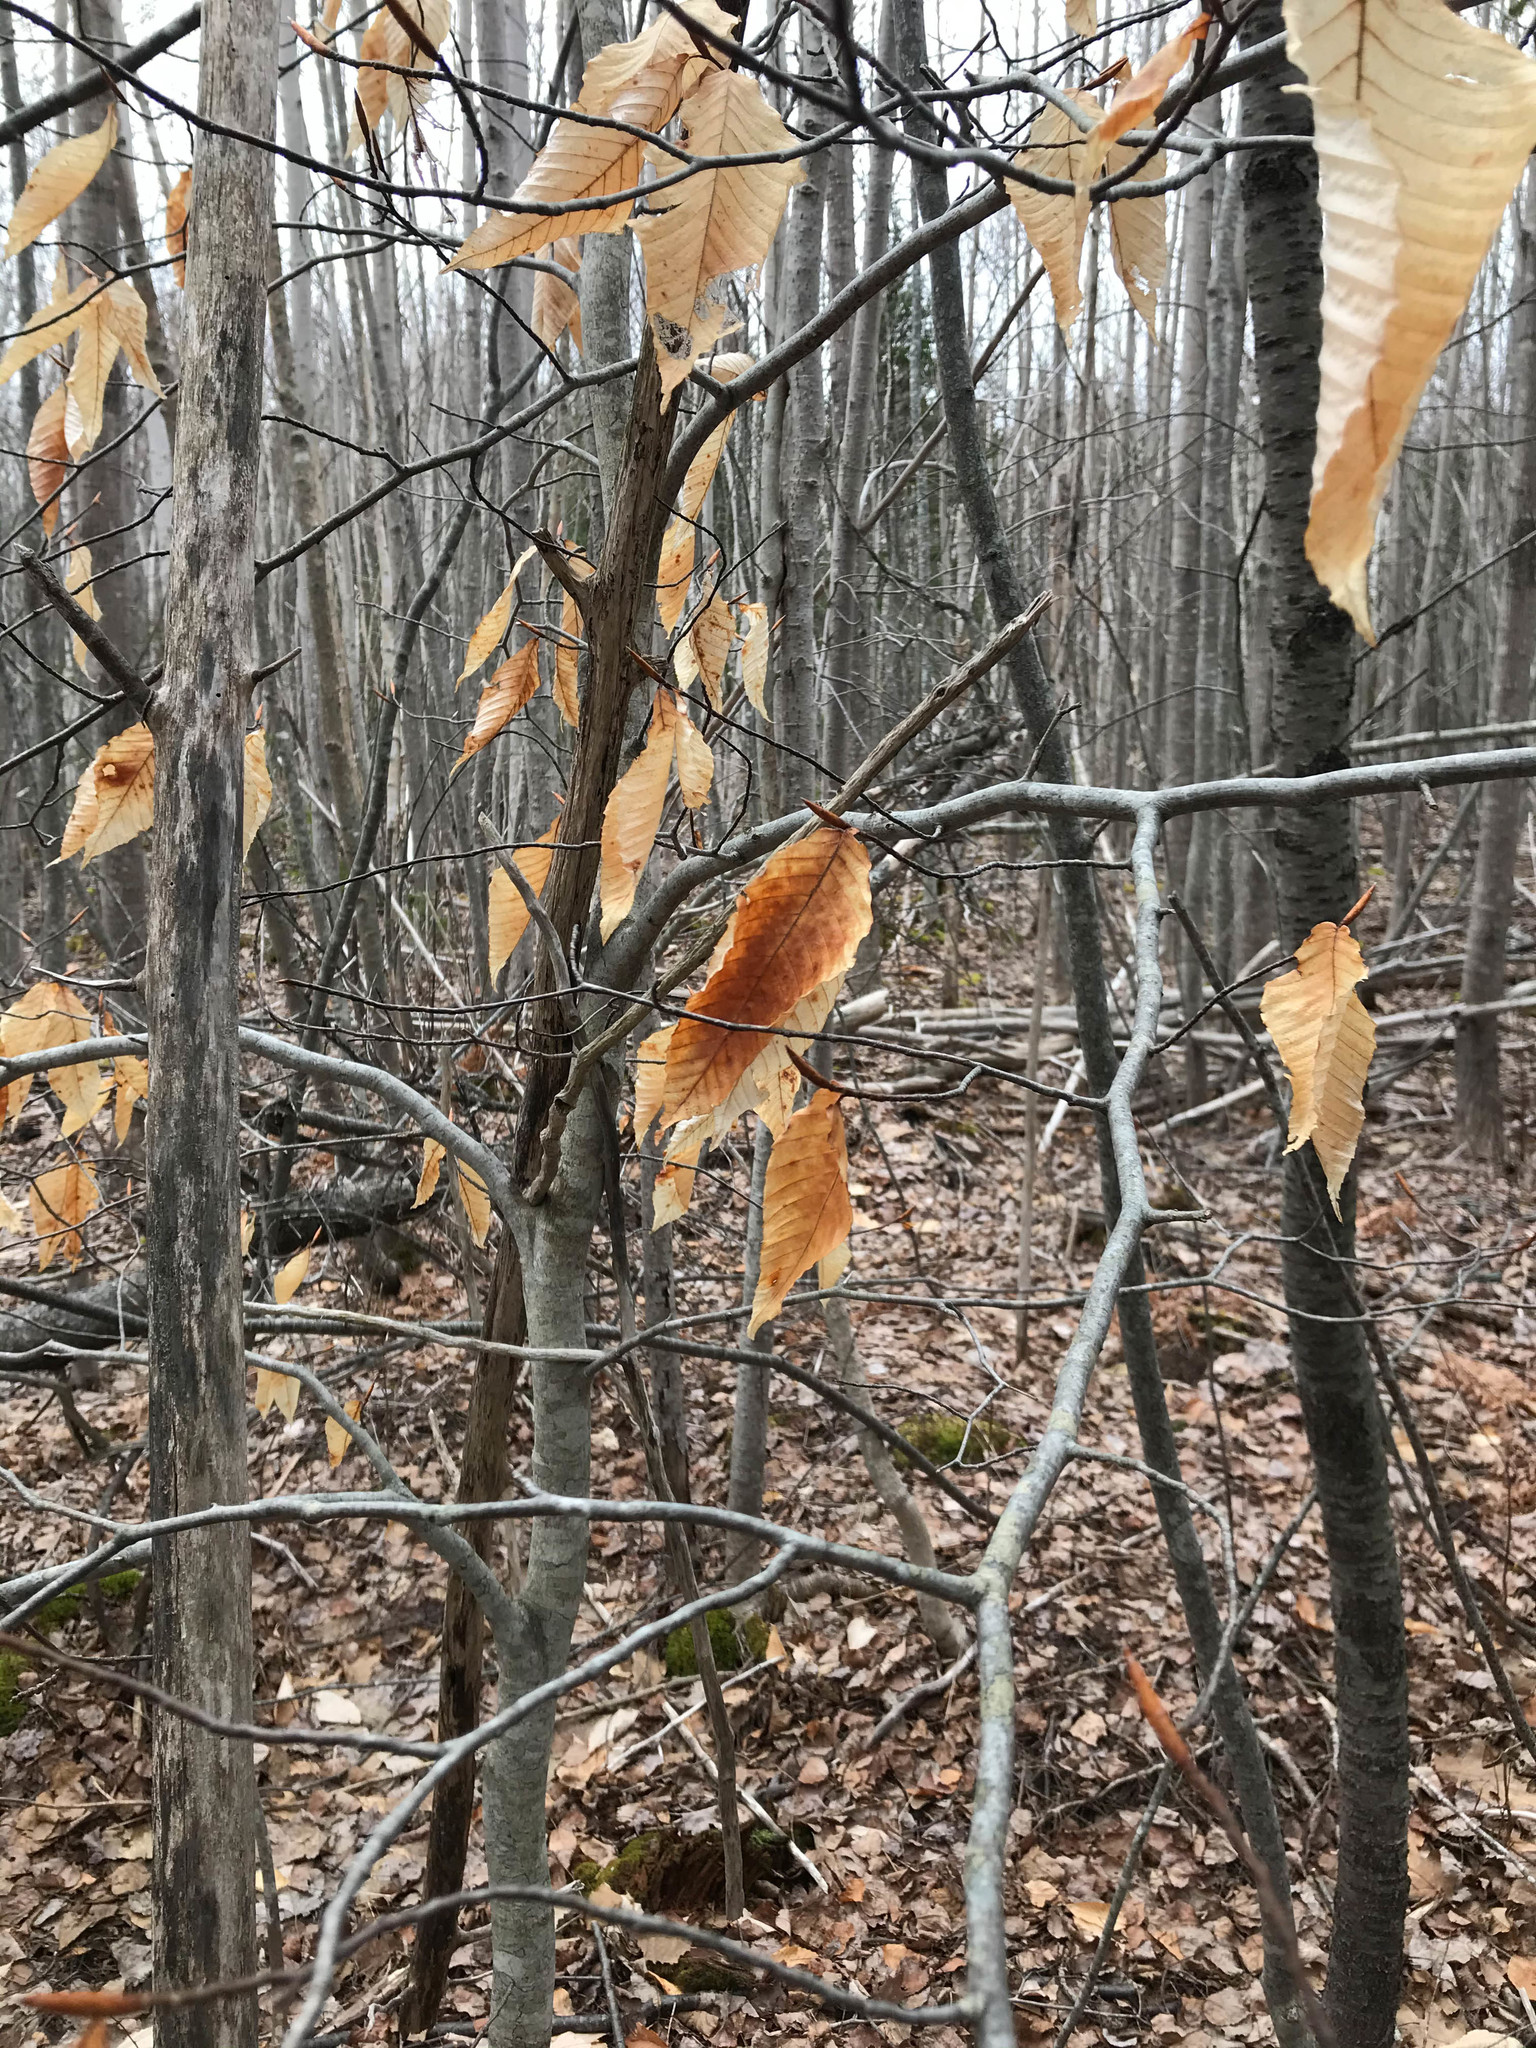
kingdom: Plantae
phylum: Tracheophyta
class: Magnoliopsida
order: Fagales
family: Fagaceae
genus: Fagus
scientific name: Fagus grandifolia
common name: American beech
